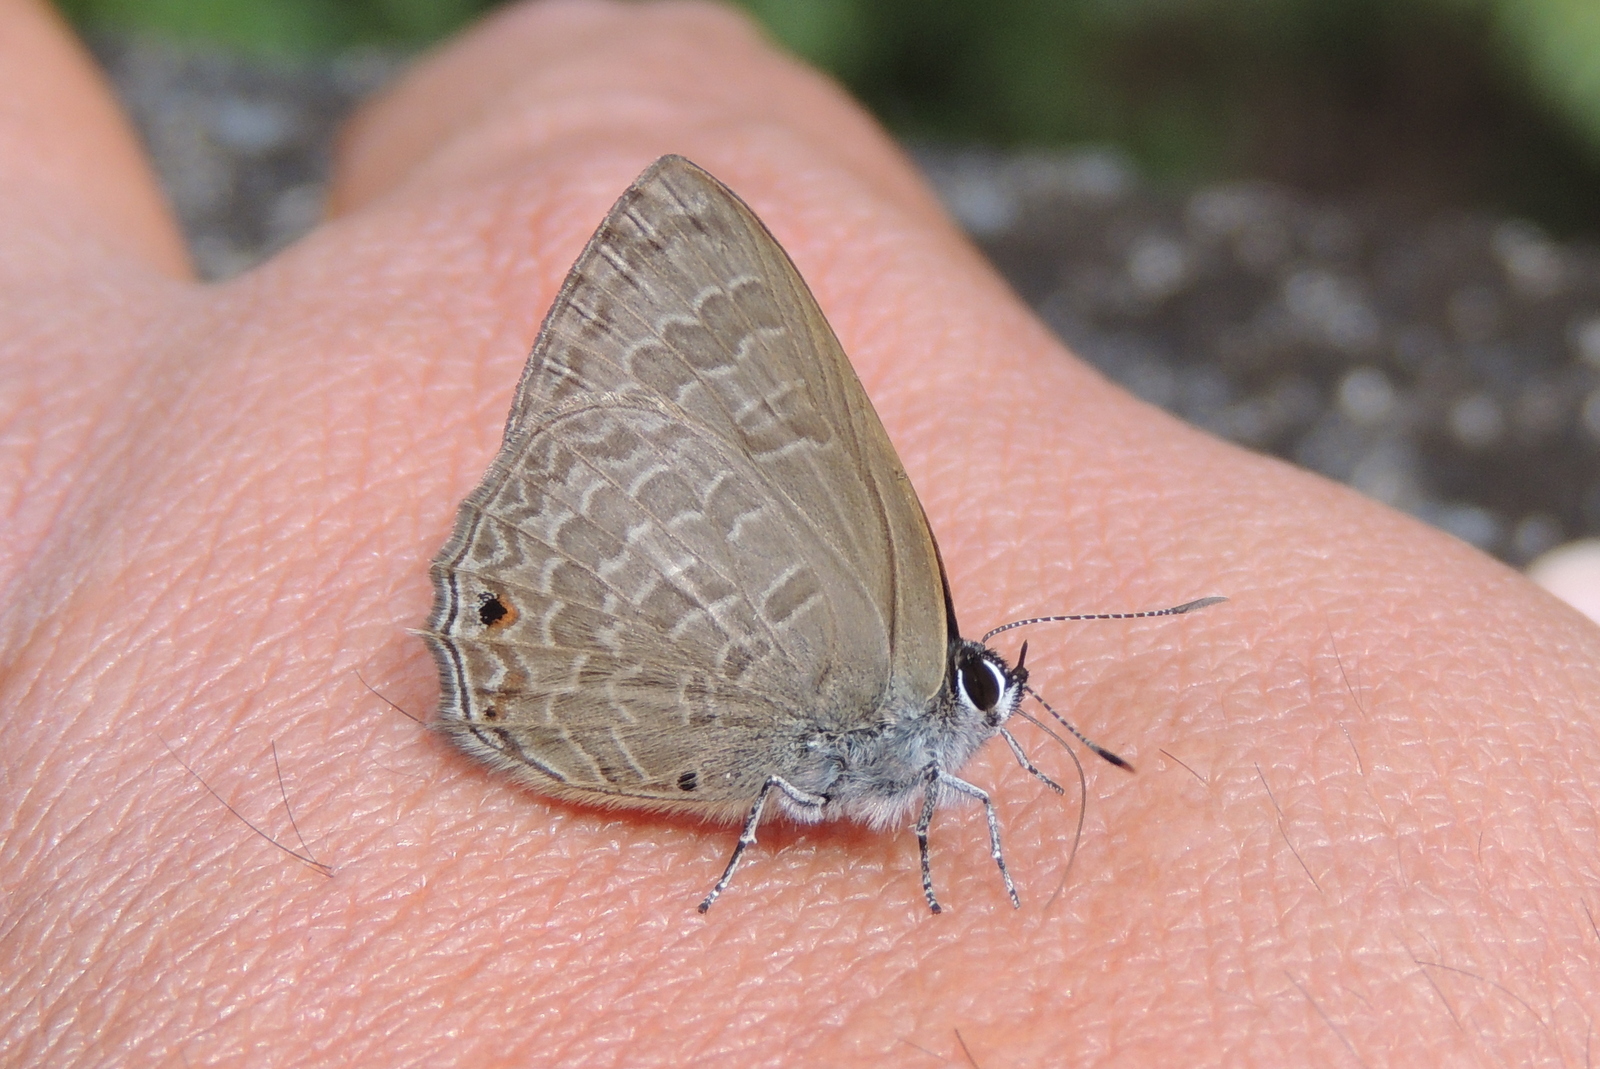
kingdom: Animalia
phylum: Arthropoda
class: Insecta
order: Lepidoptera
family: Lycaenidae
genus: Anthene
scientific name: Anthene emolus
